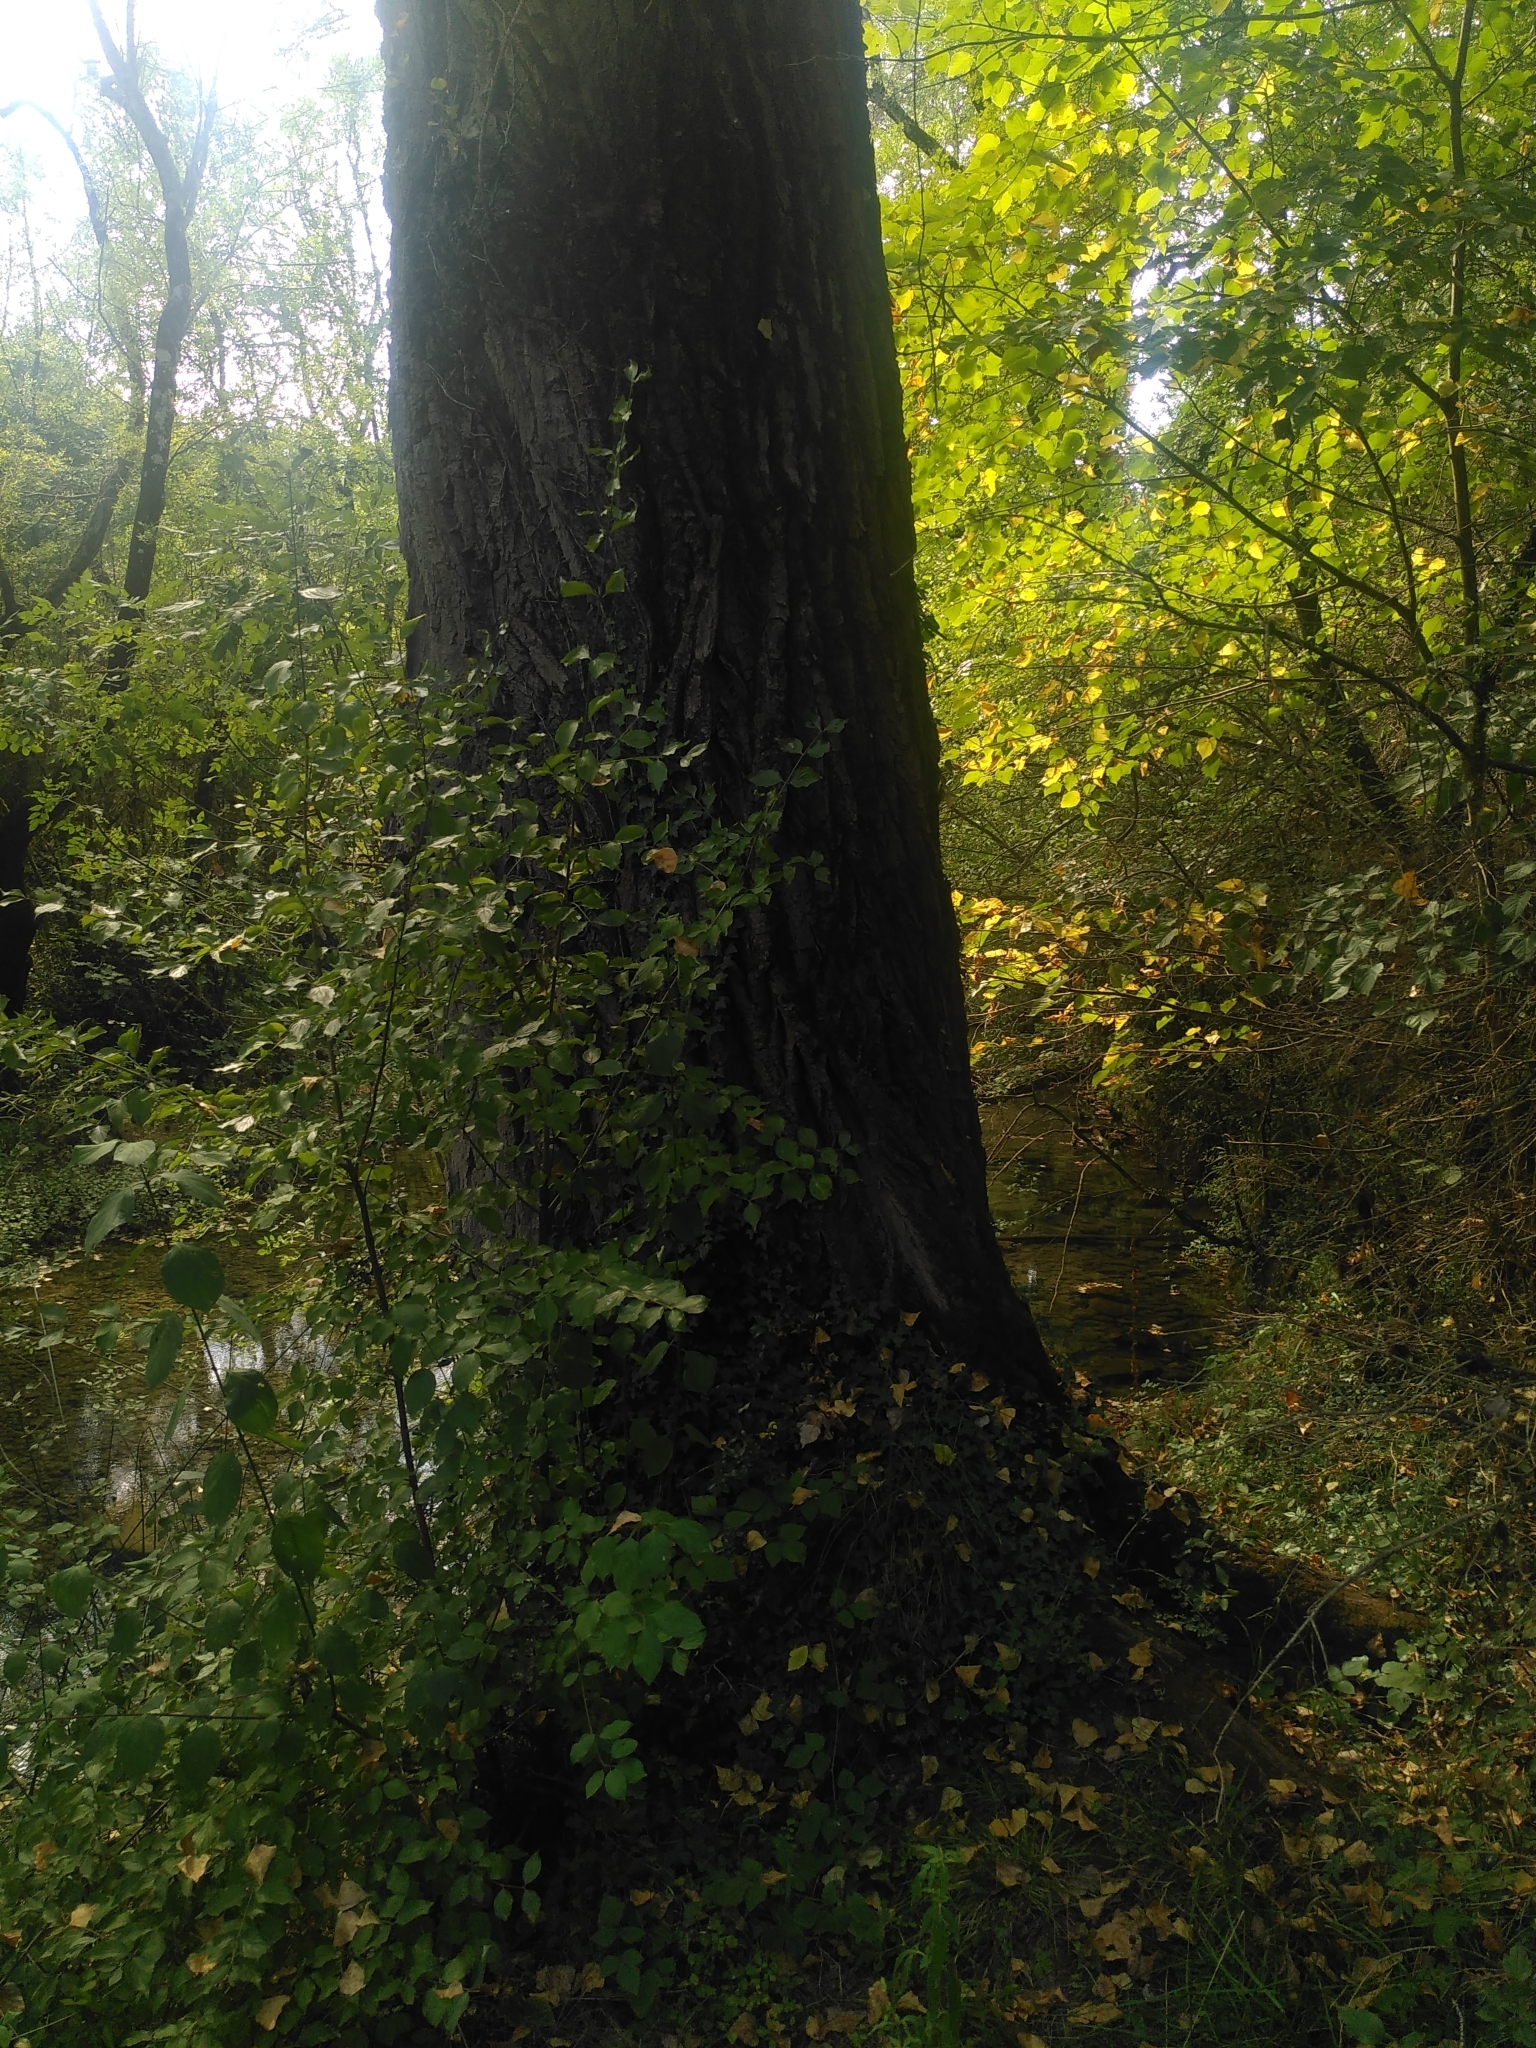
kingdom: Plantae
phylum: Tracheophyta
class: Magnoliopsida
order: Malpighiales
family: Salicaceae
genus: Populus
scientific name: Populus nigra
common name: Black poplar
